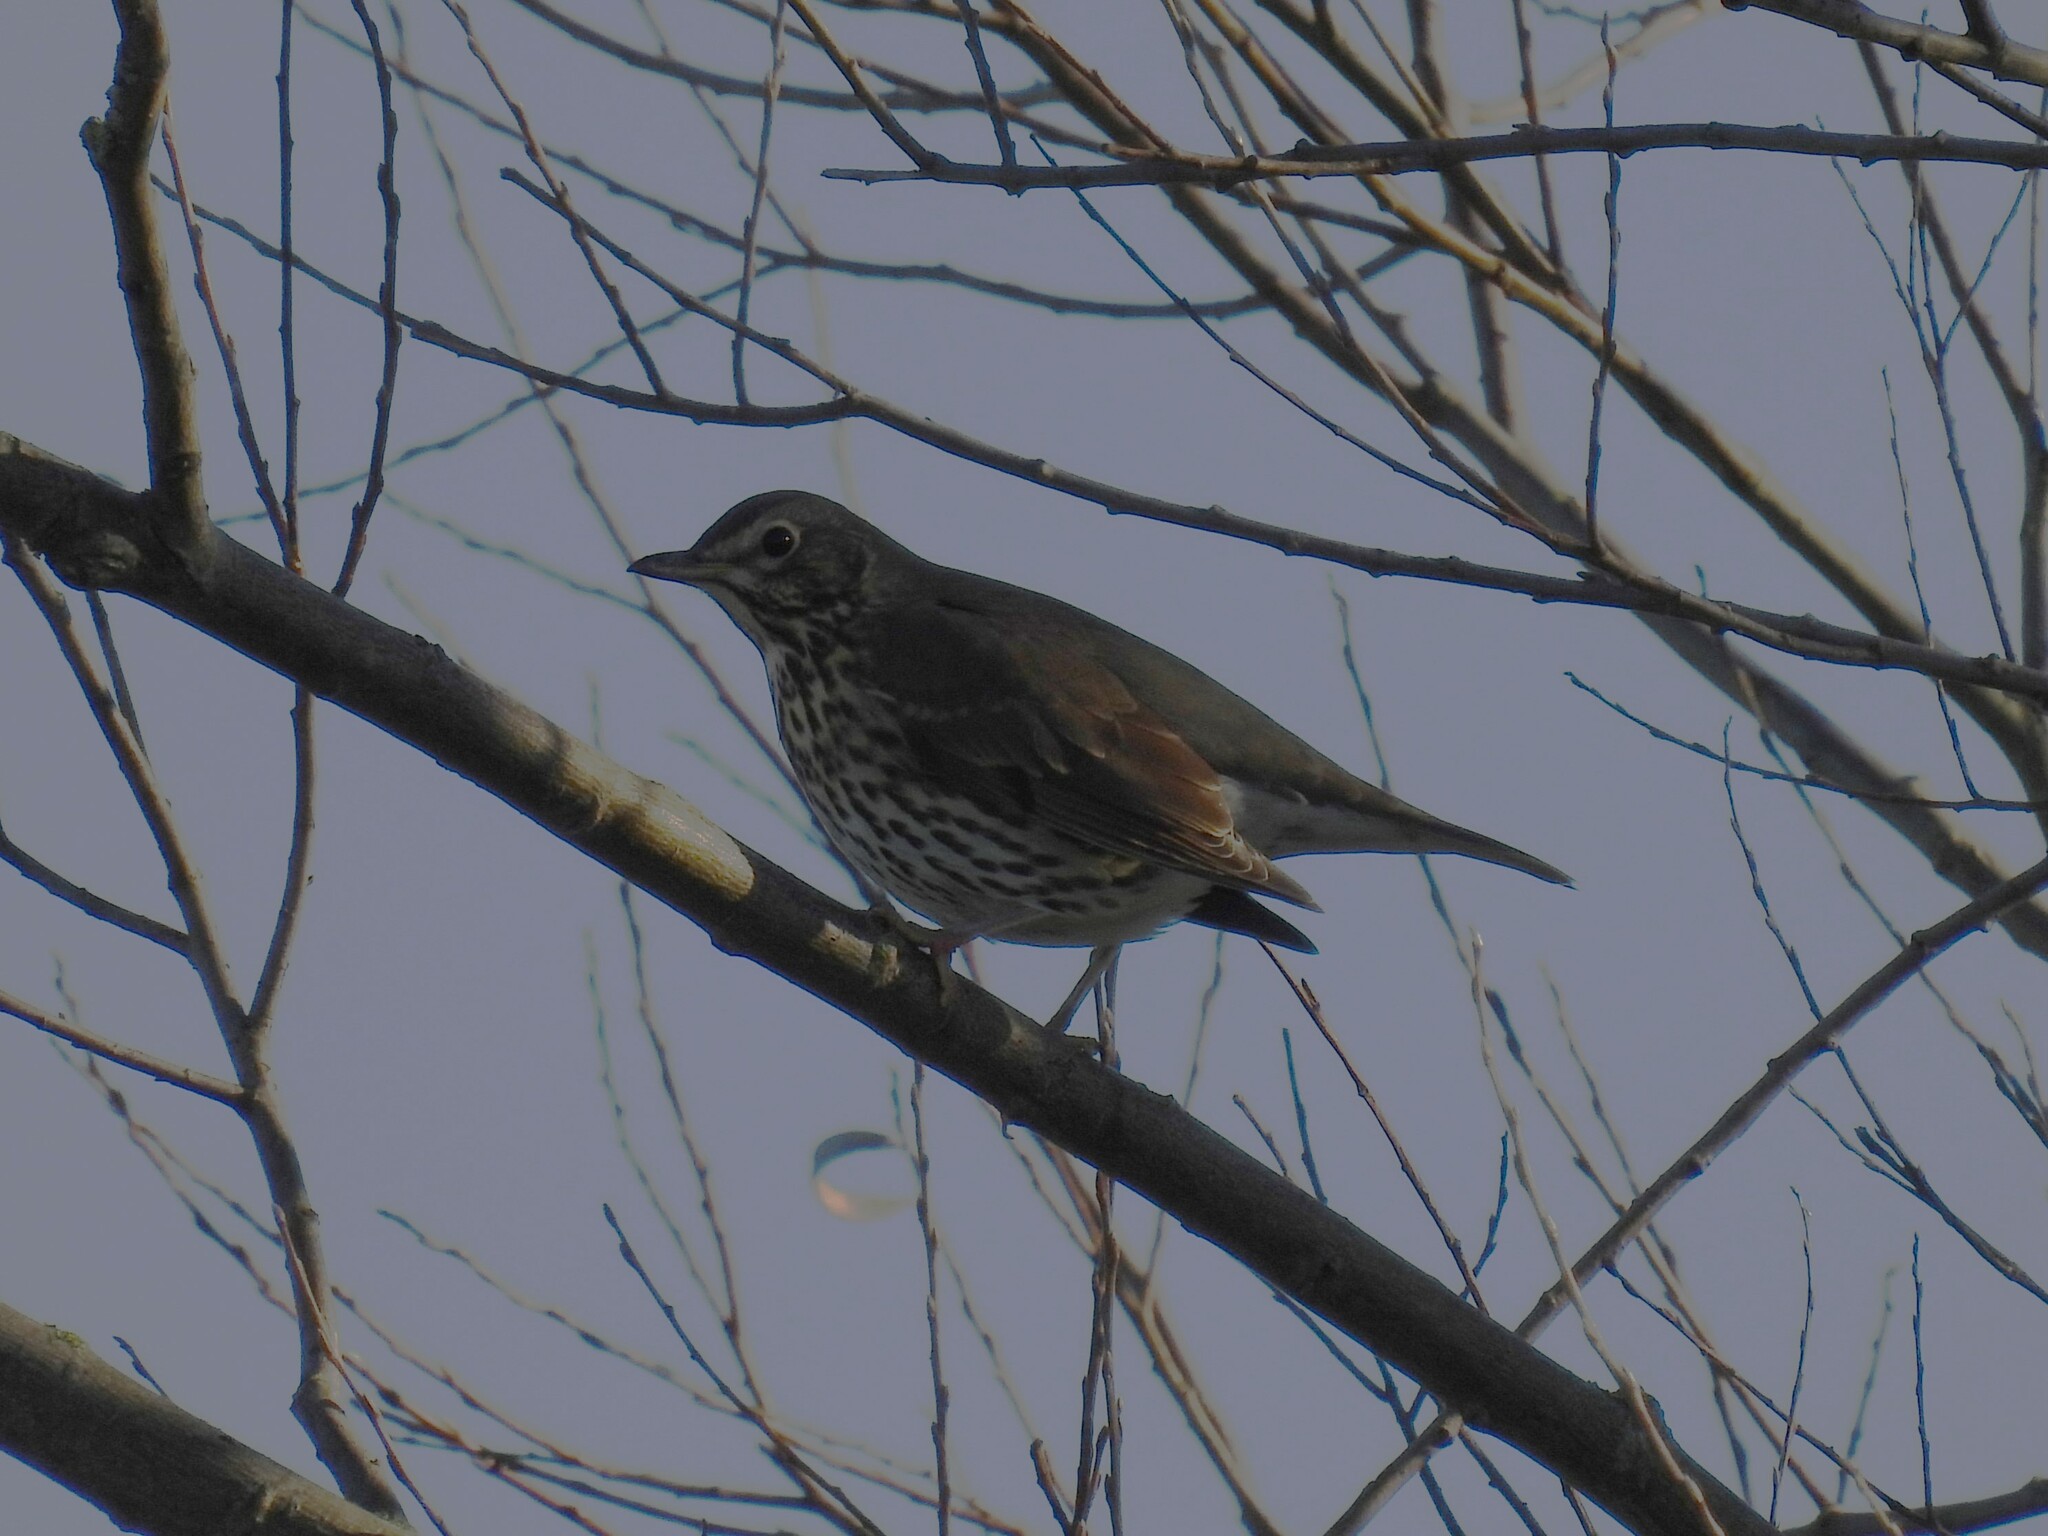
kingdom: Animalia
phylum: Chordata
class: Aves
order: Passeriformes
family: Turdidae
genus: Turdus
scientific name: Turdus philomelos
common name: Song thrush
